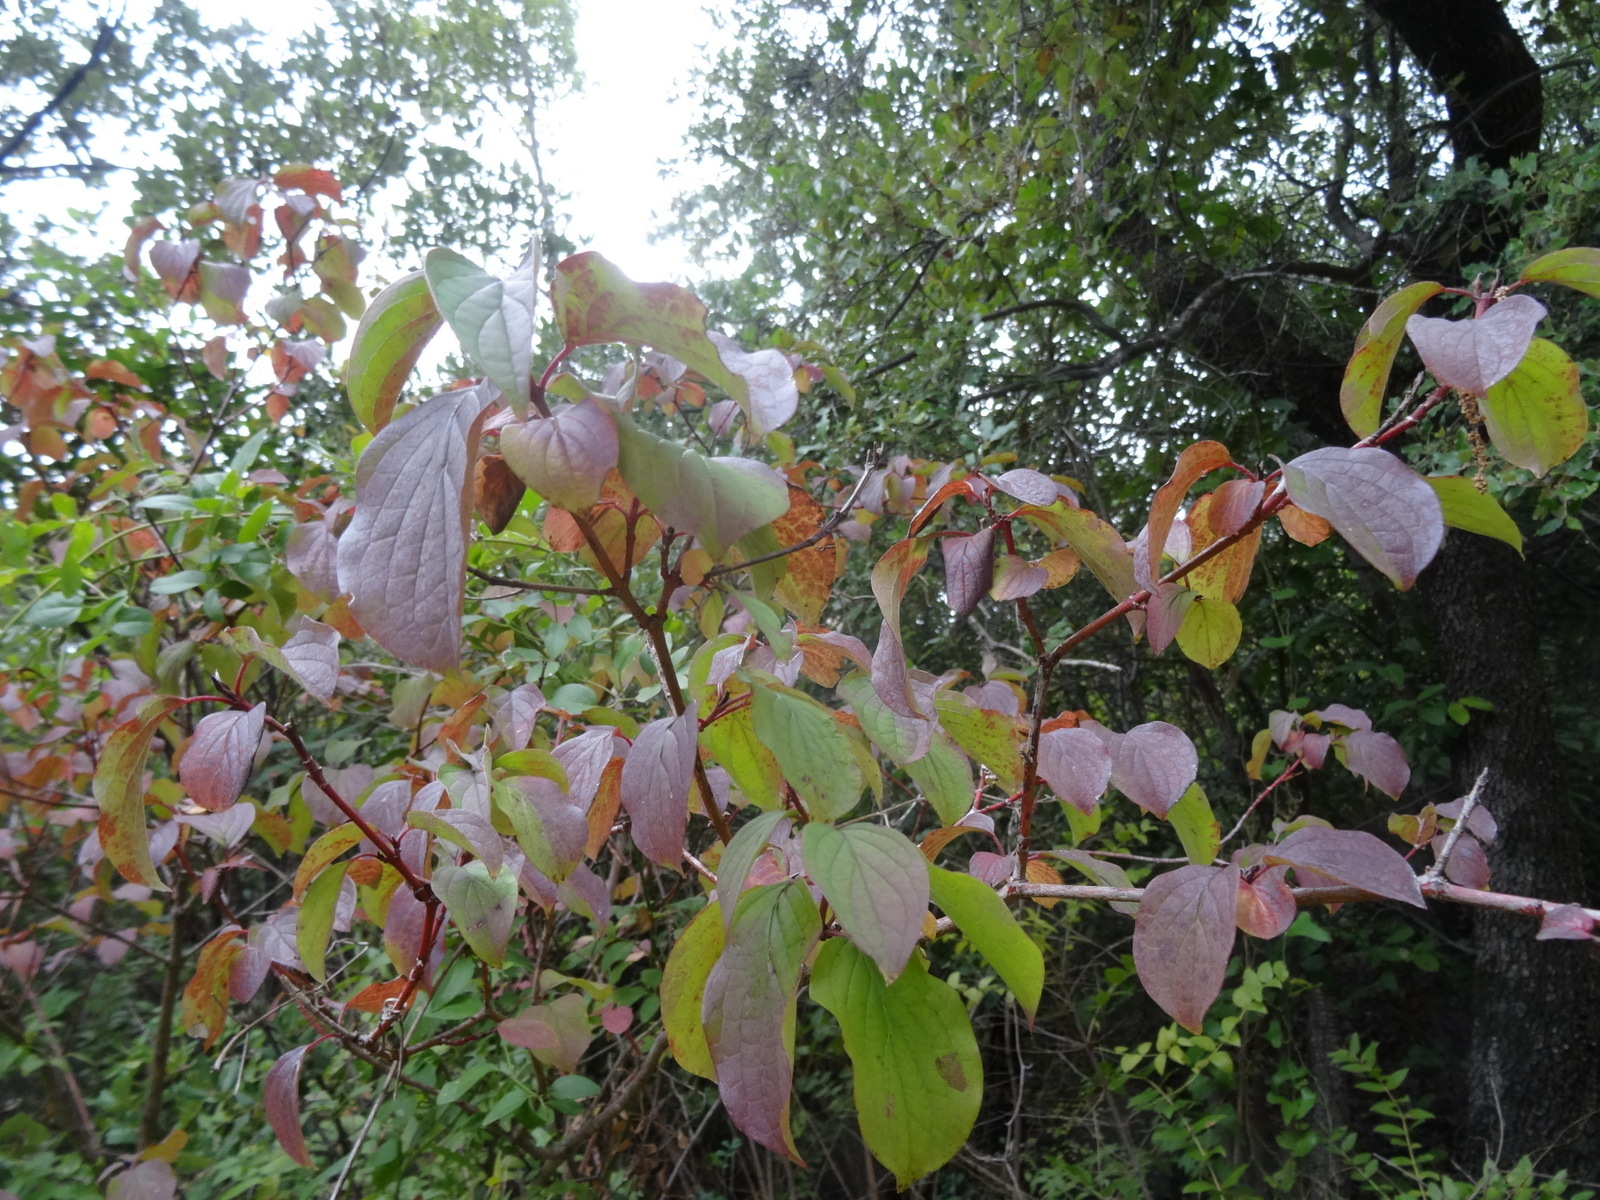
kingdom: Plantae
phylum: Tracheophyta
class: Magnoliopsida
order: Cornales
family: Cornaceae
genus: Cornus
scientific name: Cornus sanguinea
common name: Dogwood
